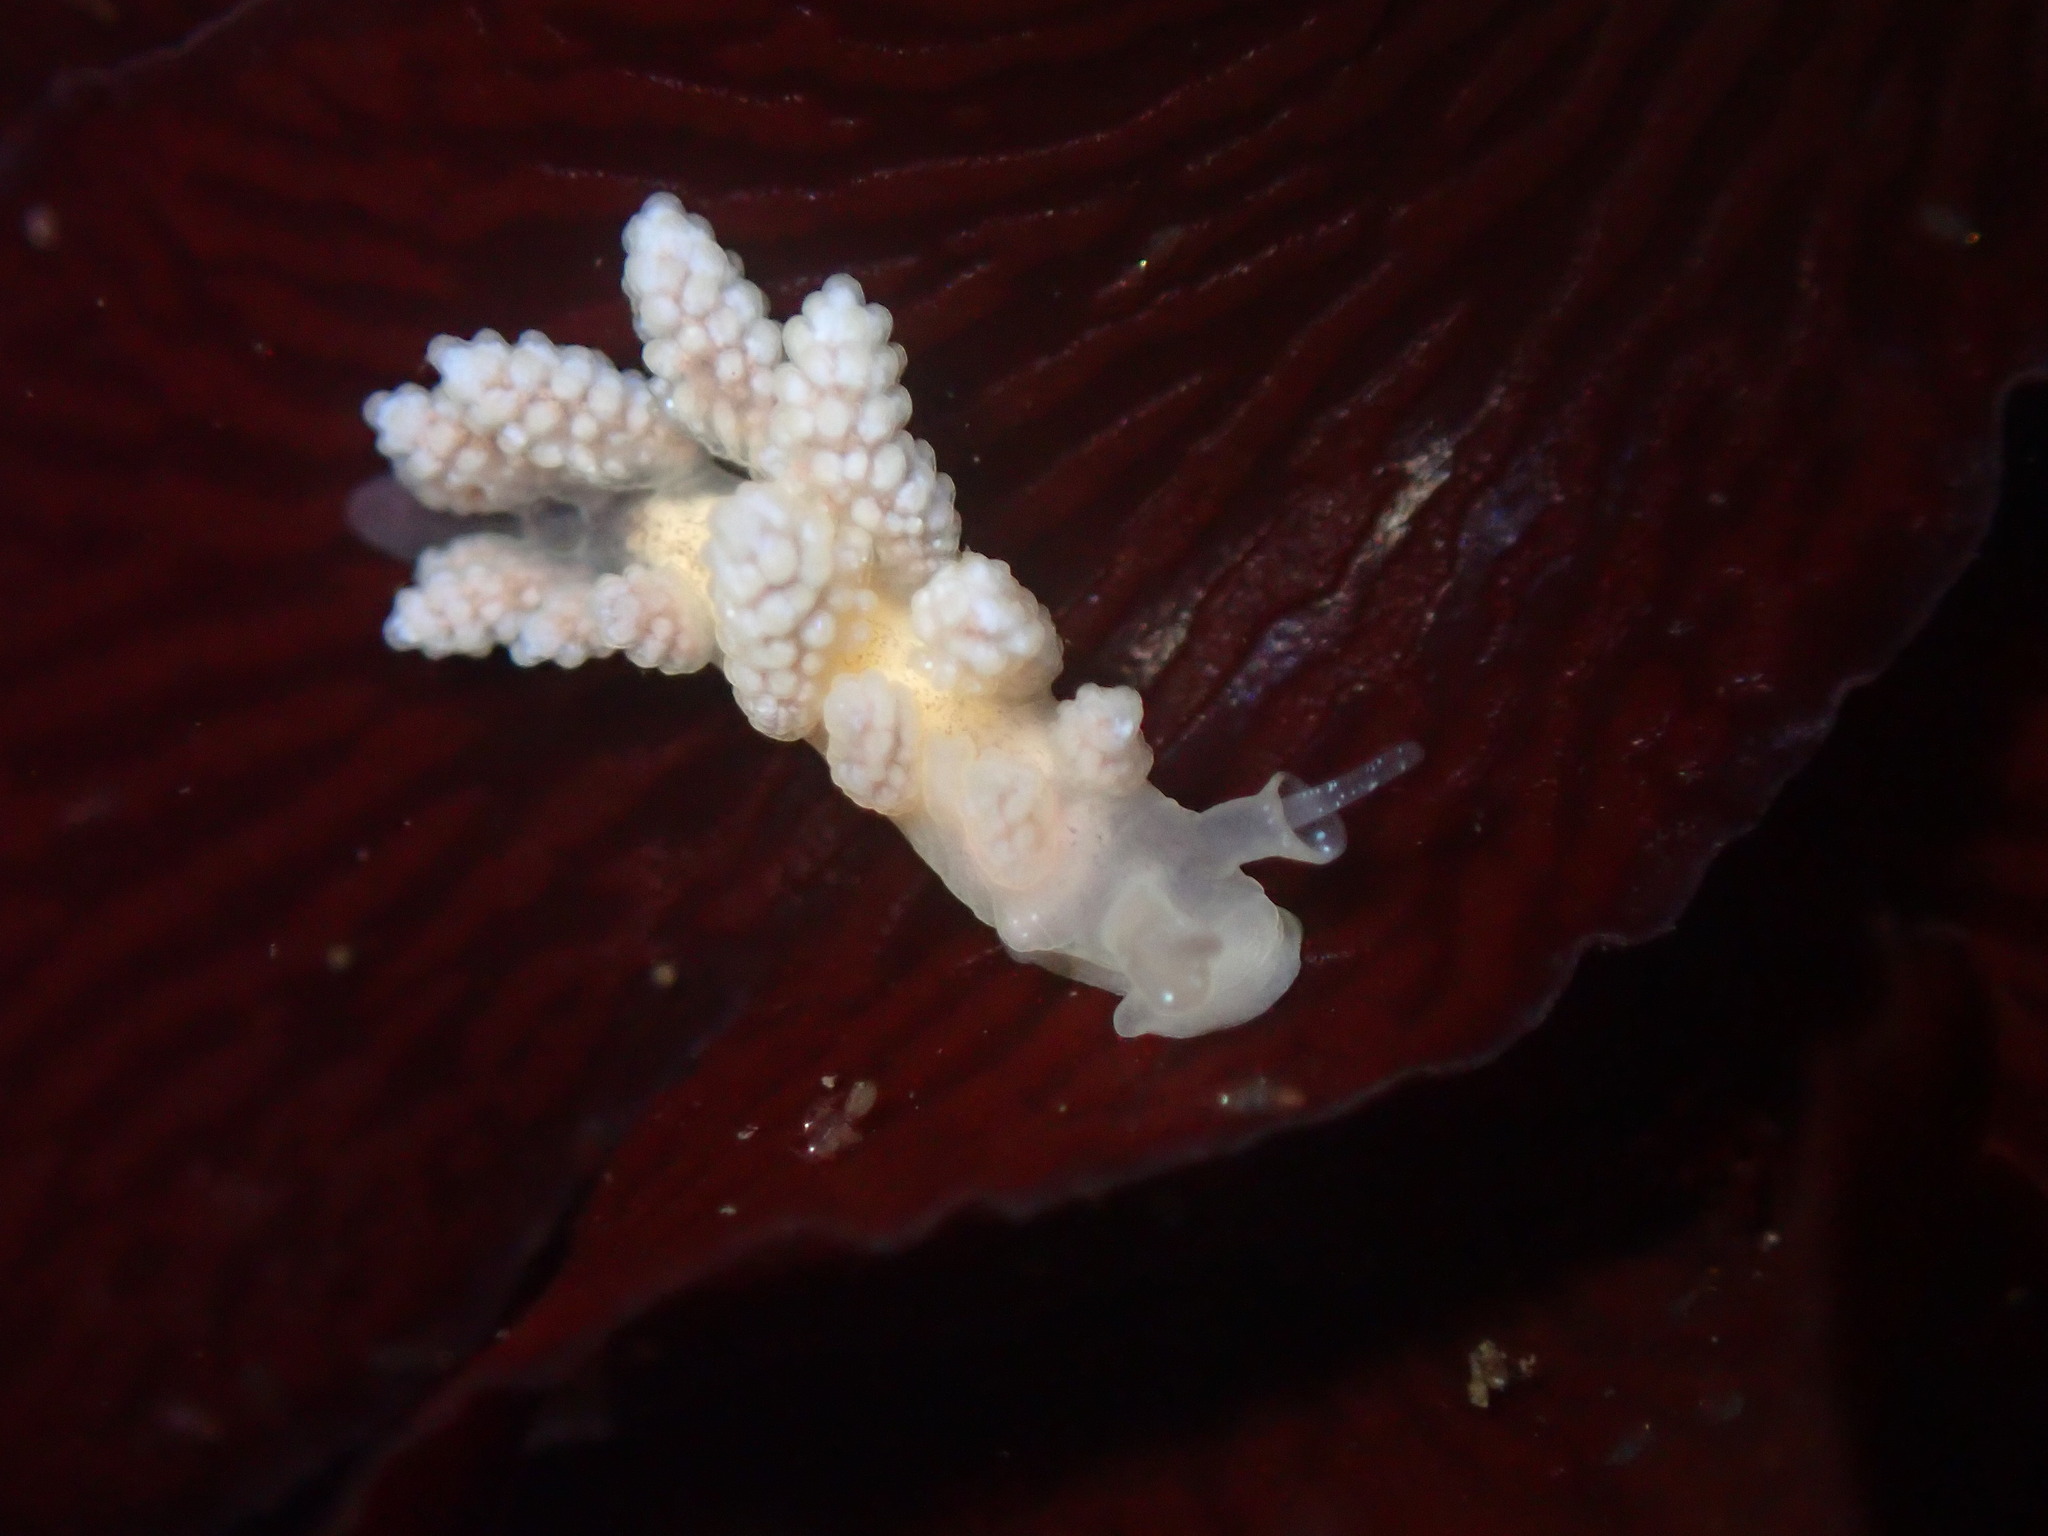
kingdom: Animalia
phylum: Mollusca
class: Gastropoda
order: Nudibranchia
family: Dotidae
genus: Doto
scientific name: Doto amyra
